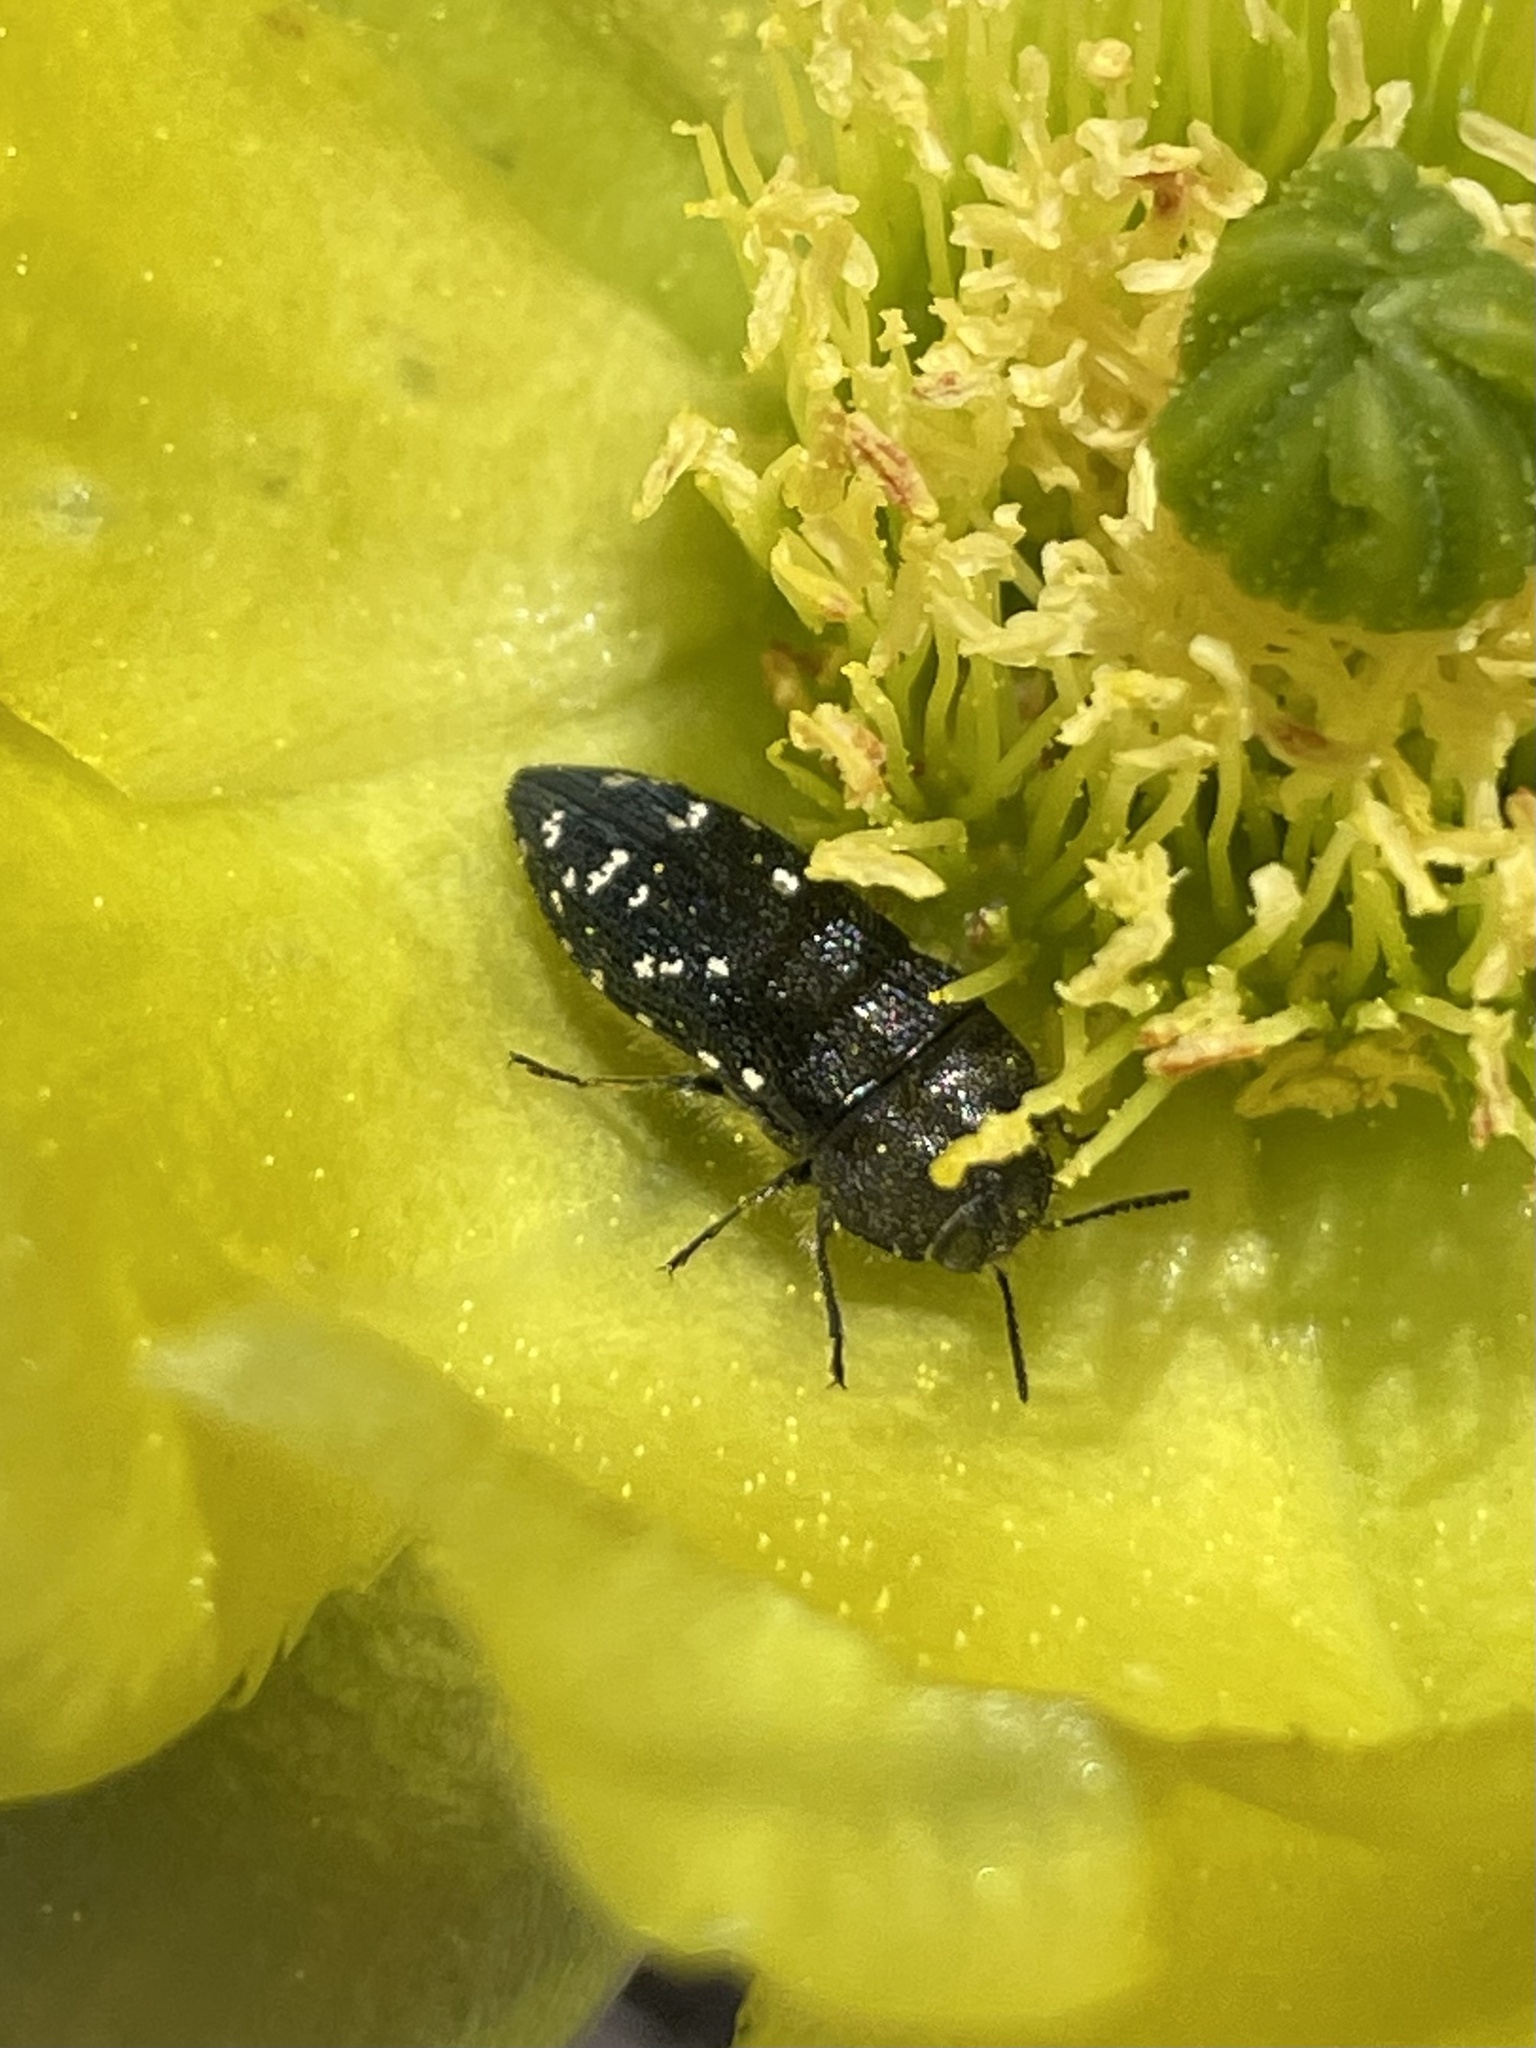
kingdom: Animalia
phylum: Arthropoda
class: Insecta
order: Coleoptera
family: Buprestidae
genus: Acmaeodera
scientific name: Acmaeodera ornatoides
